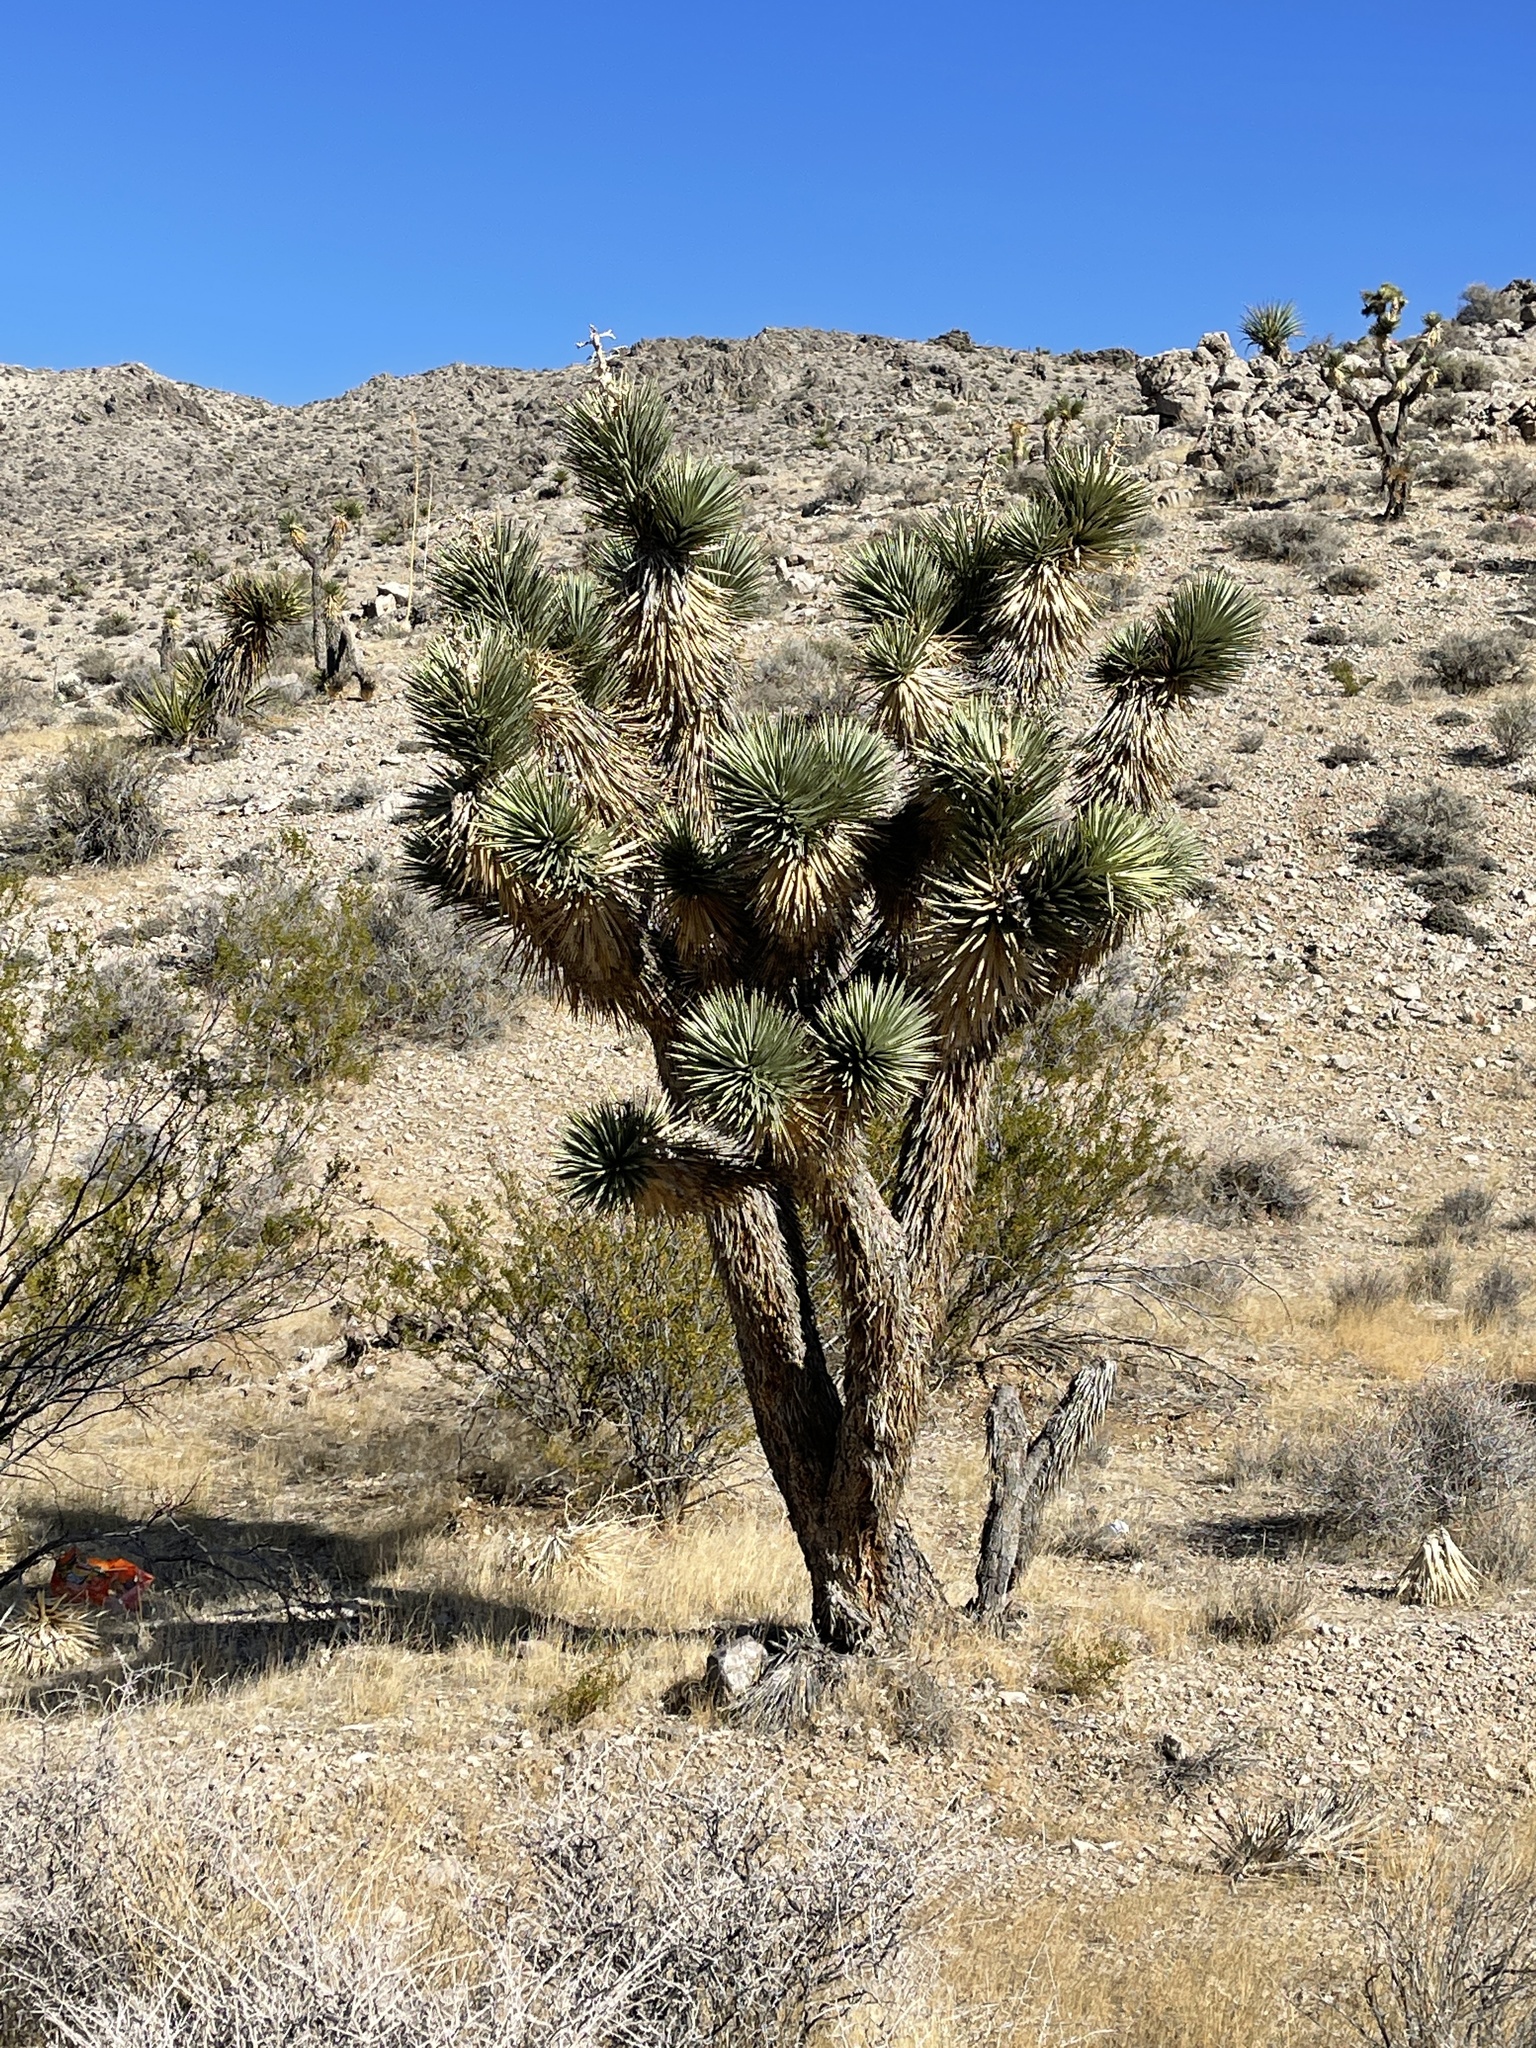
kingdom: Plantae
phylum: Tracheophyta
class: Liliopsida
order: Asparagales
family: Asparagaceae
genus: Yucca
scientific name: Yucca brevifolia
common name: Joshua tree
